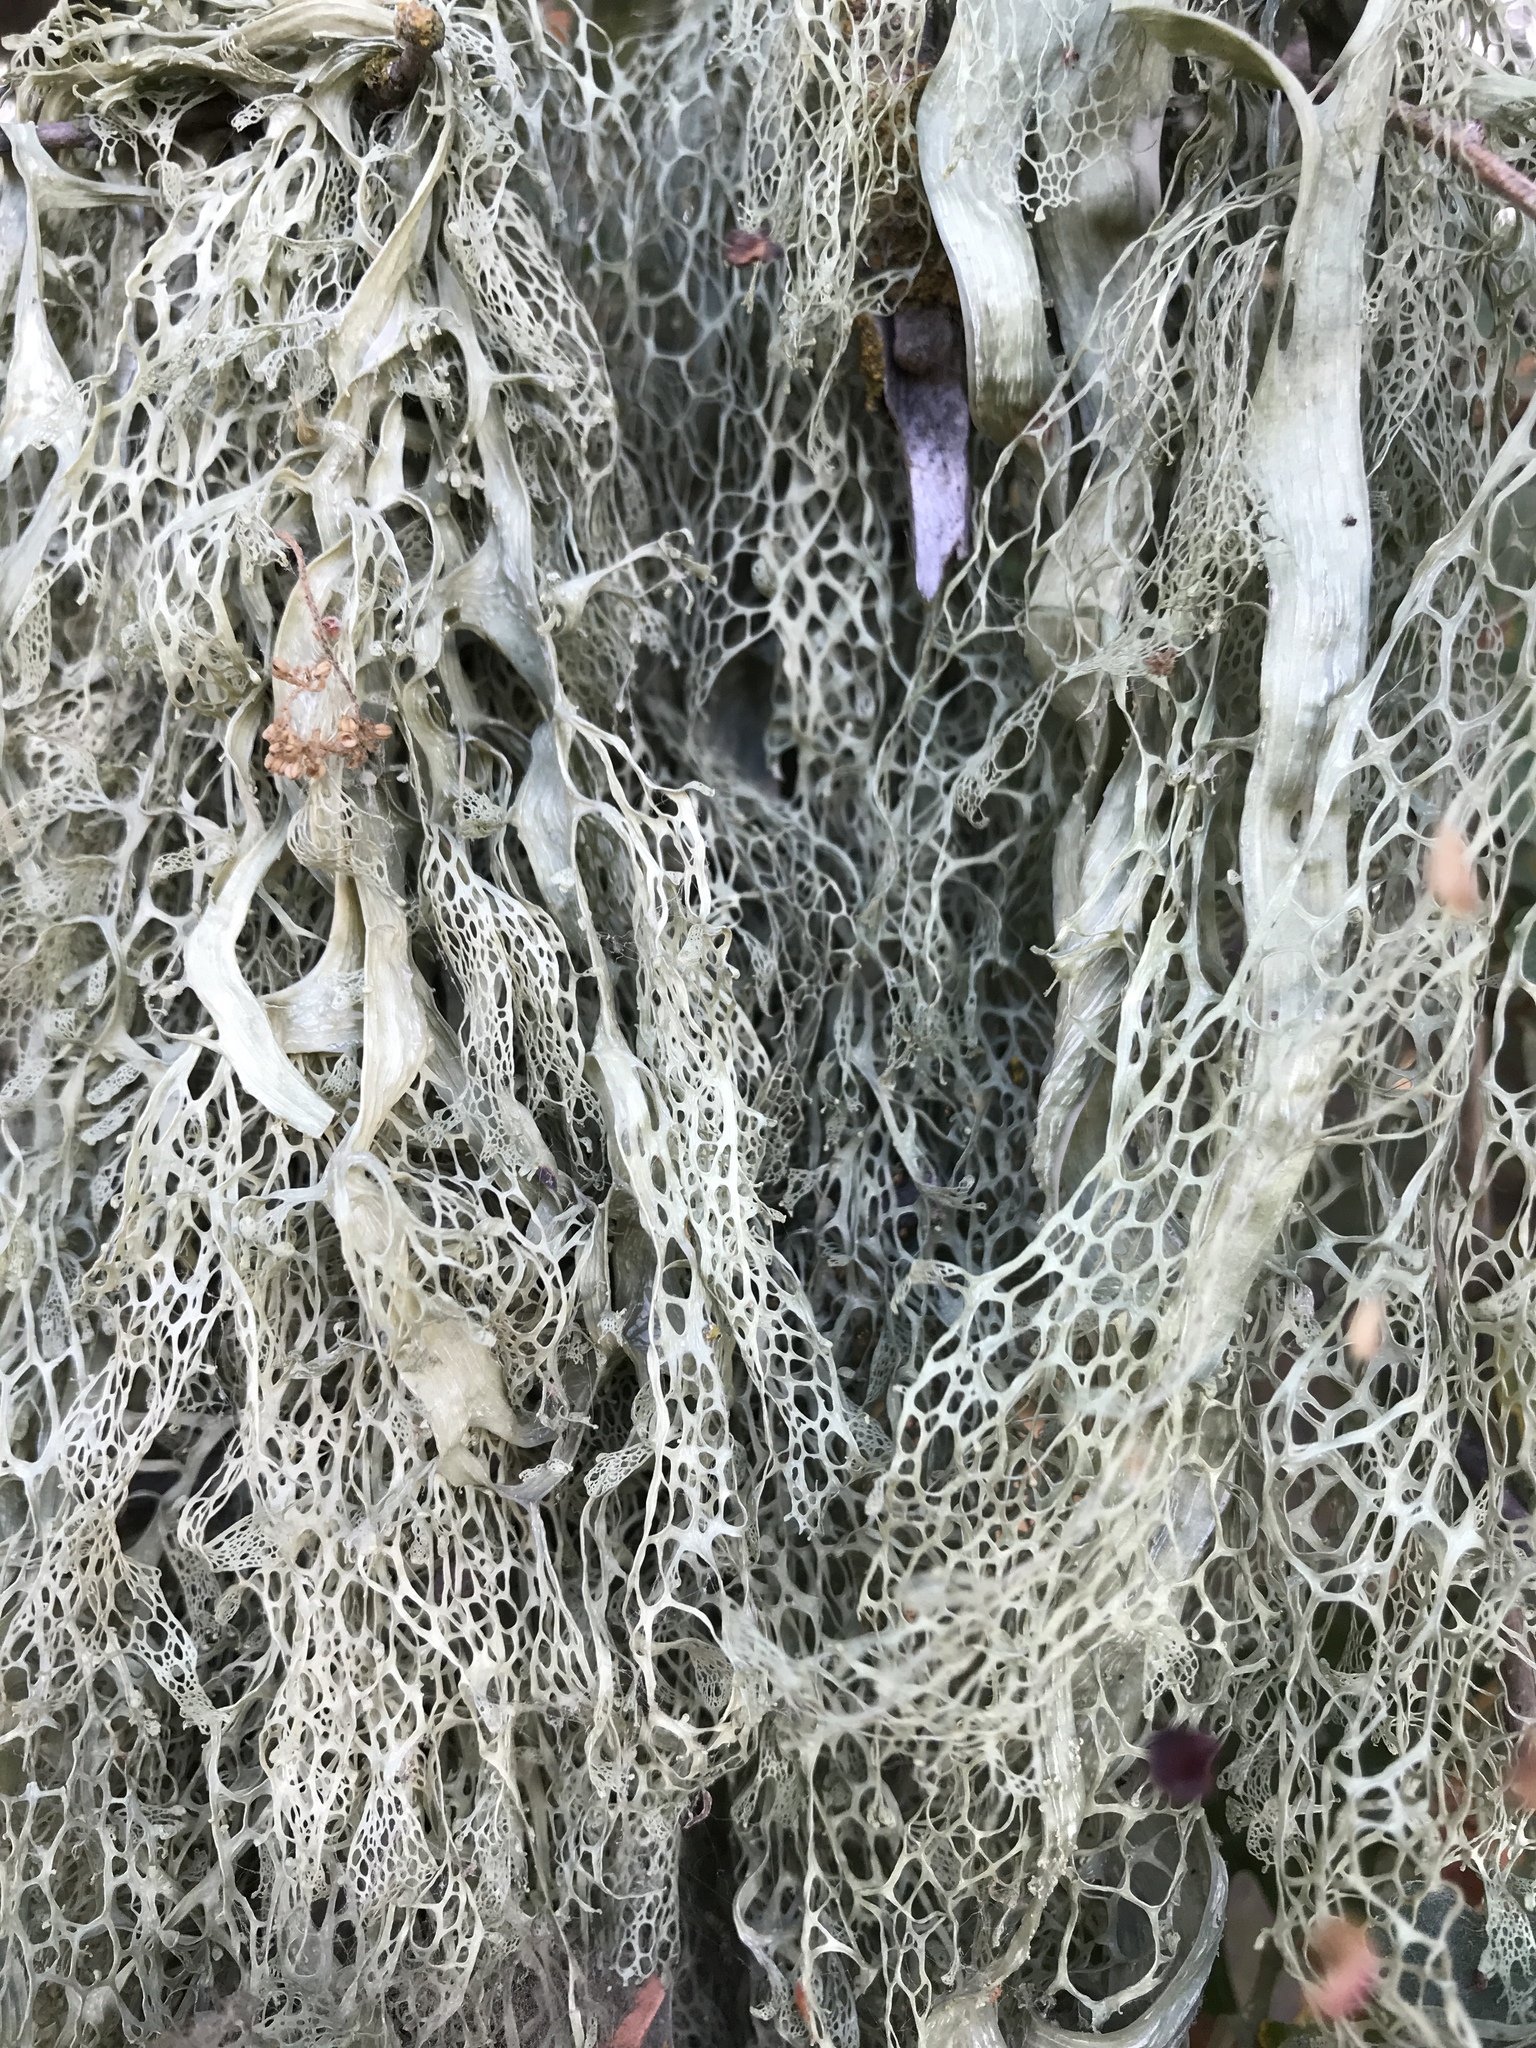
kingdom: Fungi
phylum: Ascomycota
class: Lecanoromycetes
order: Lecanorales
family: Ramalinaceae
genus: Ramalina
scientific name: Ramalina menziesii
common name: Lace lichen
